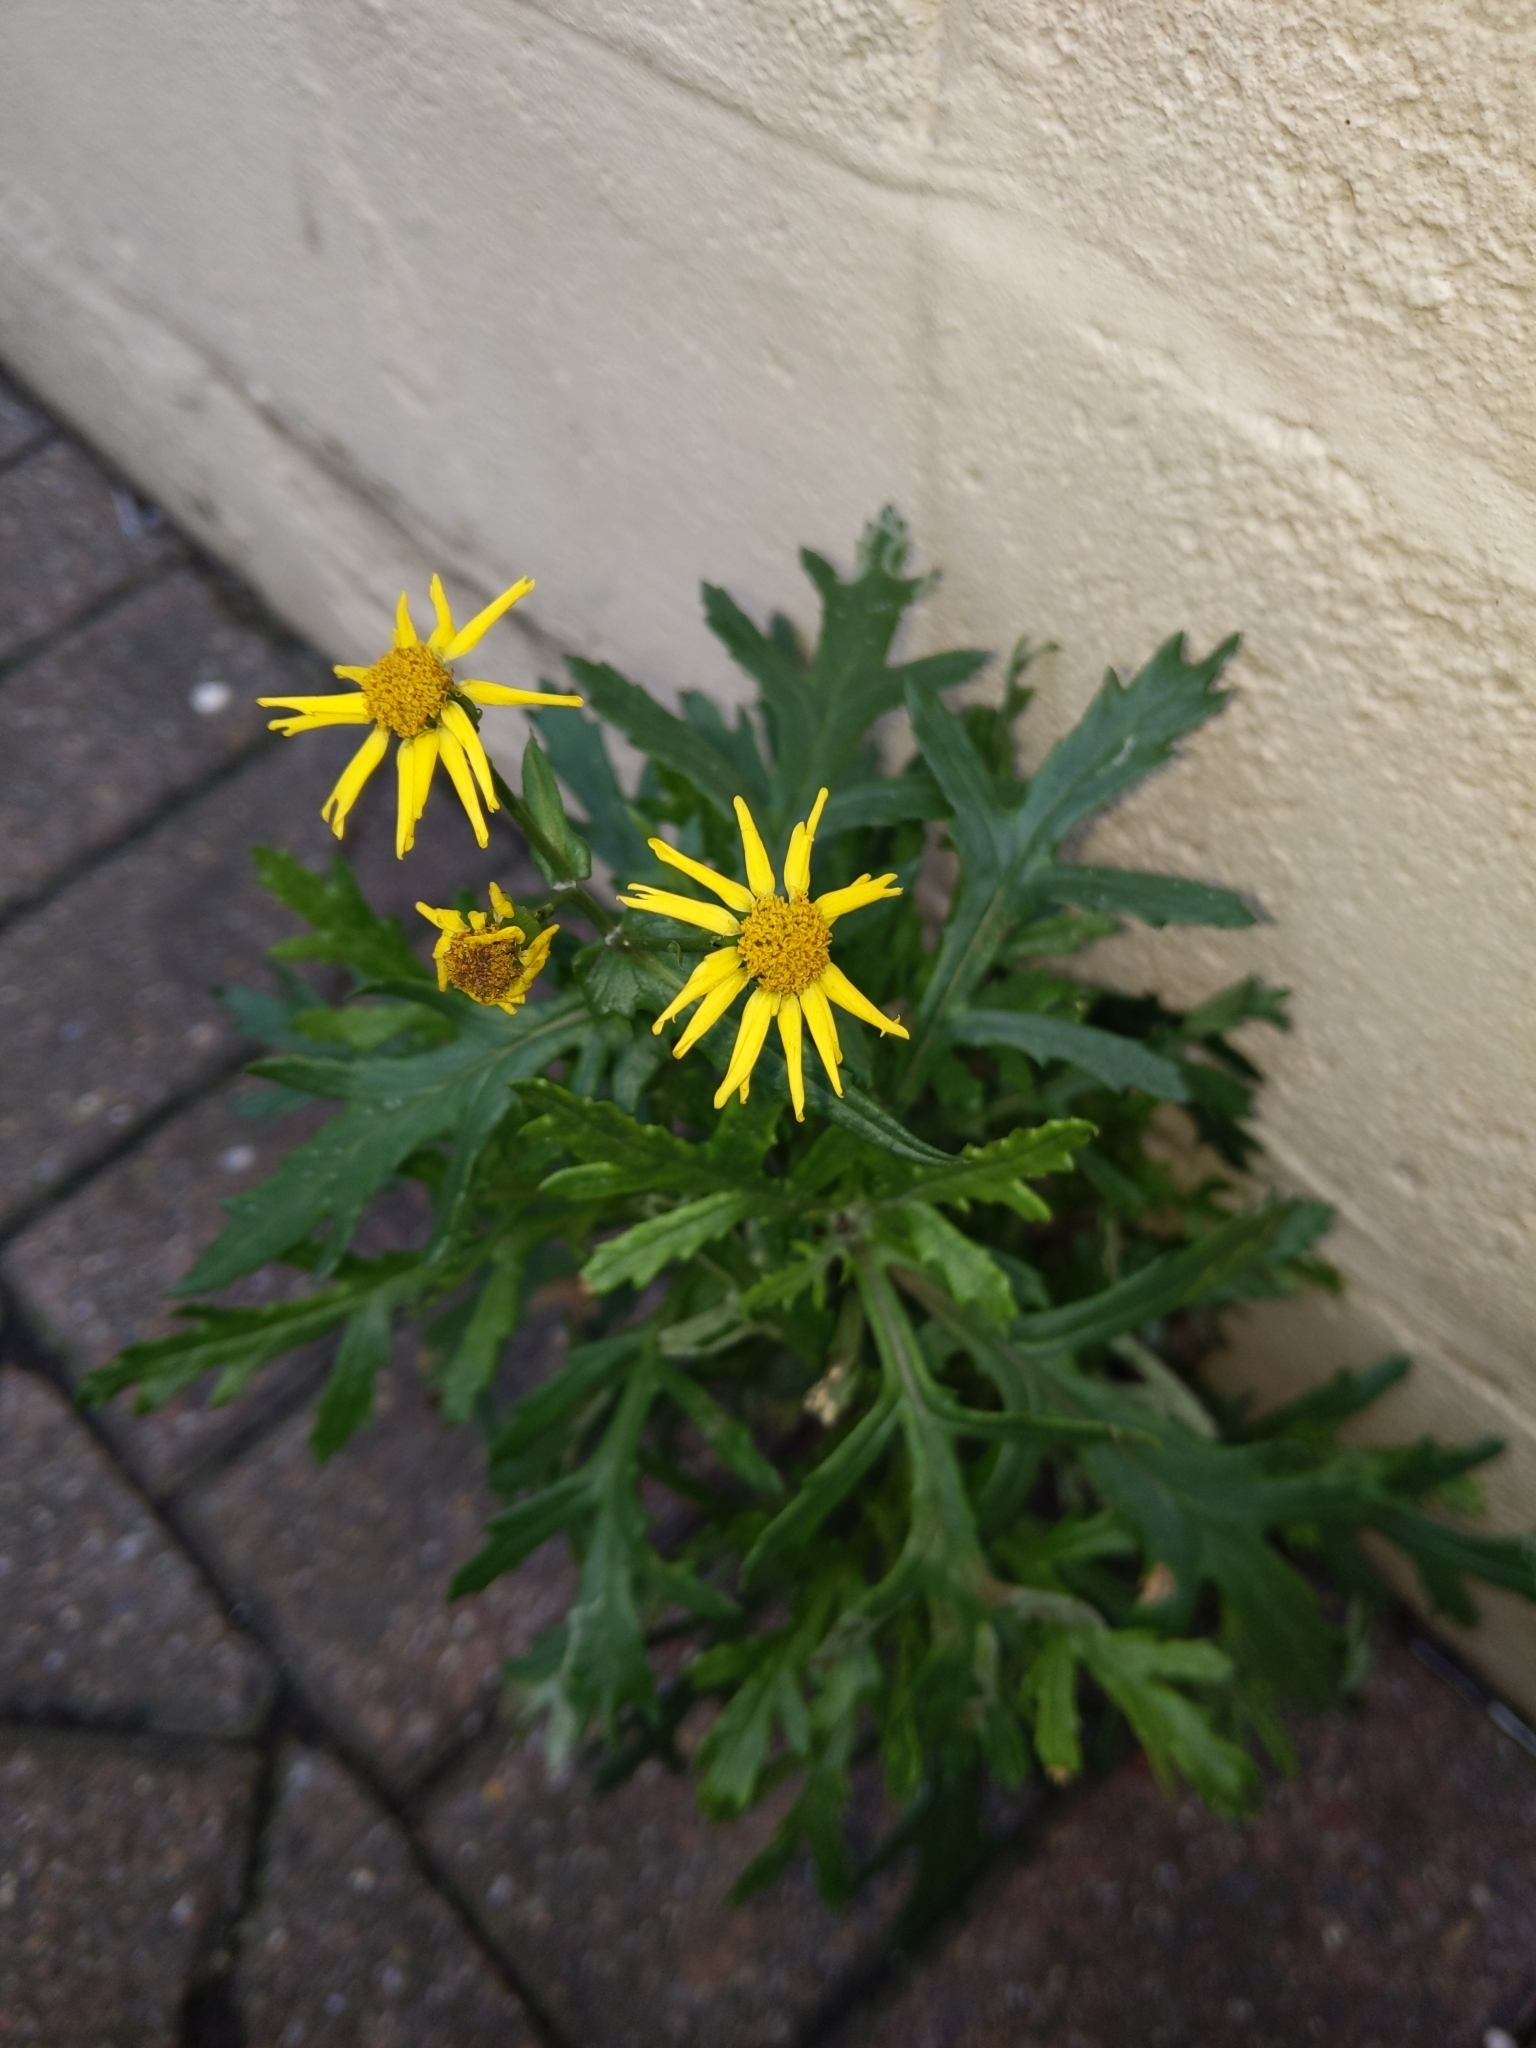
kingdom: Plantae
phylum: Tracheophyta
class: Magnoliopsida
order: Asterales
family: Asteraceae
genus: Senecio
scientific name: Senecio squalidus
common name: Oxford ragwort
